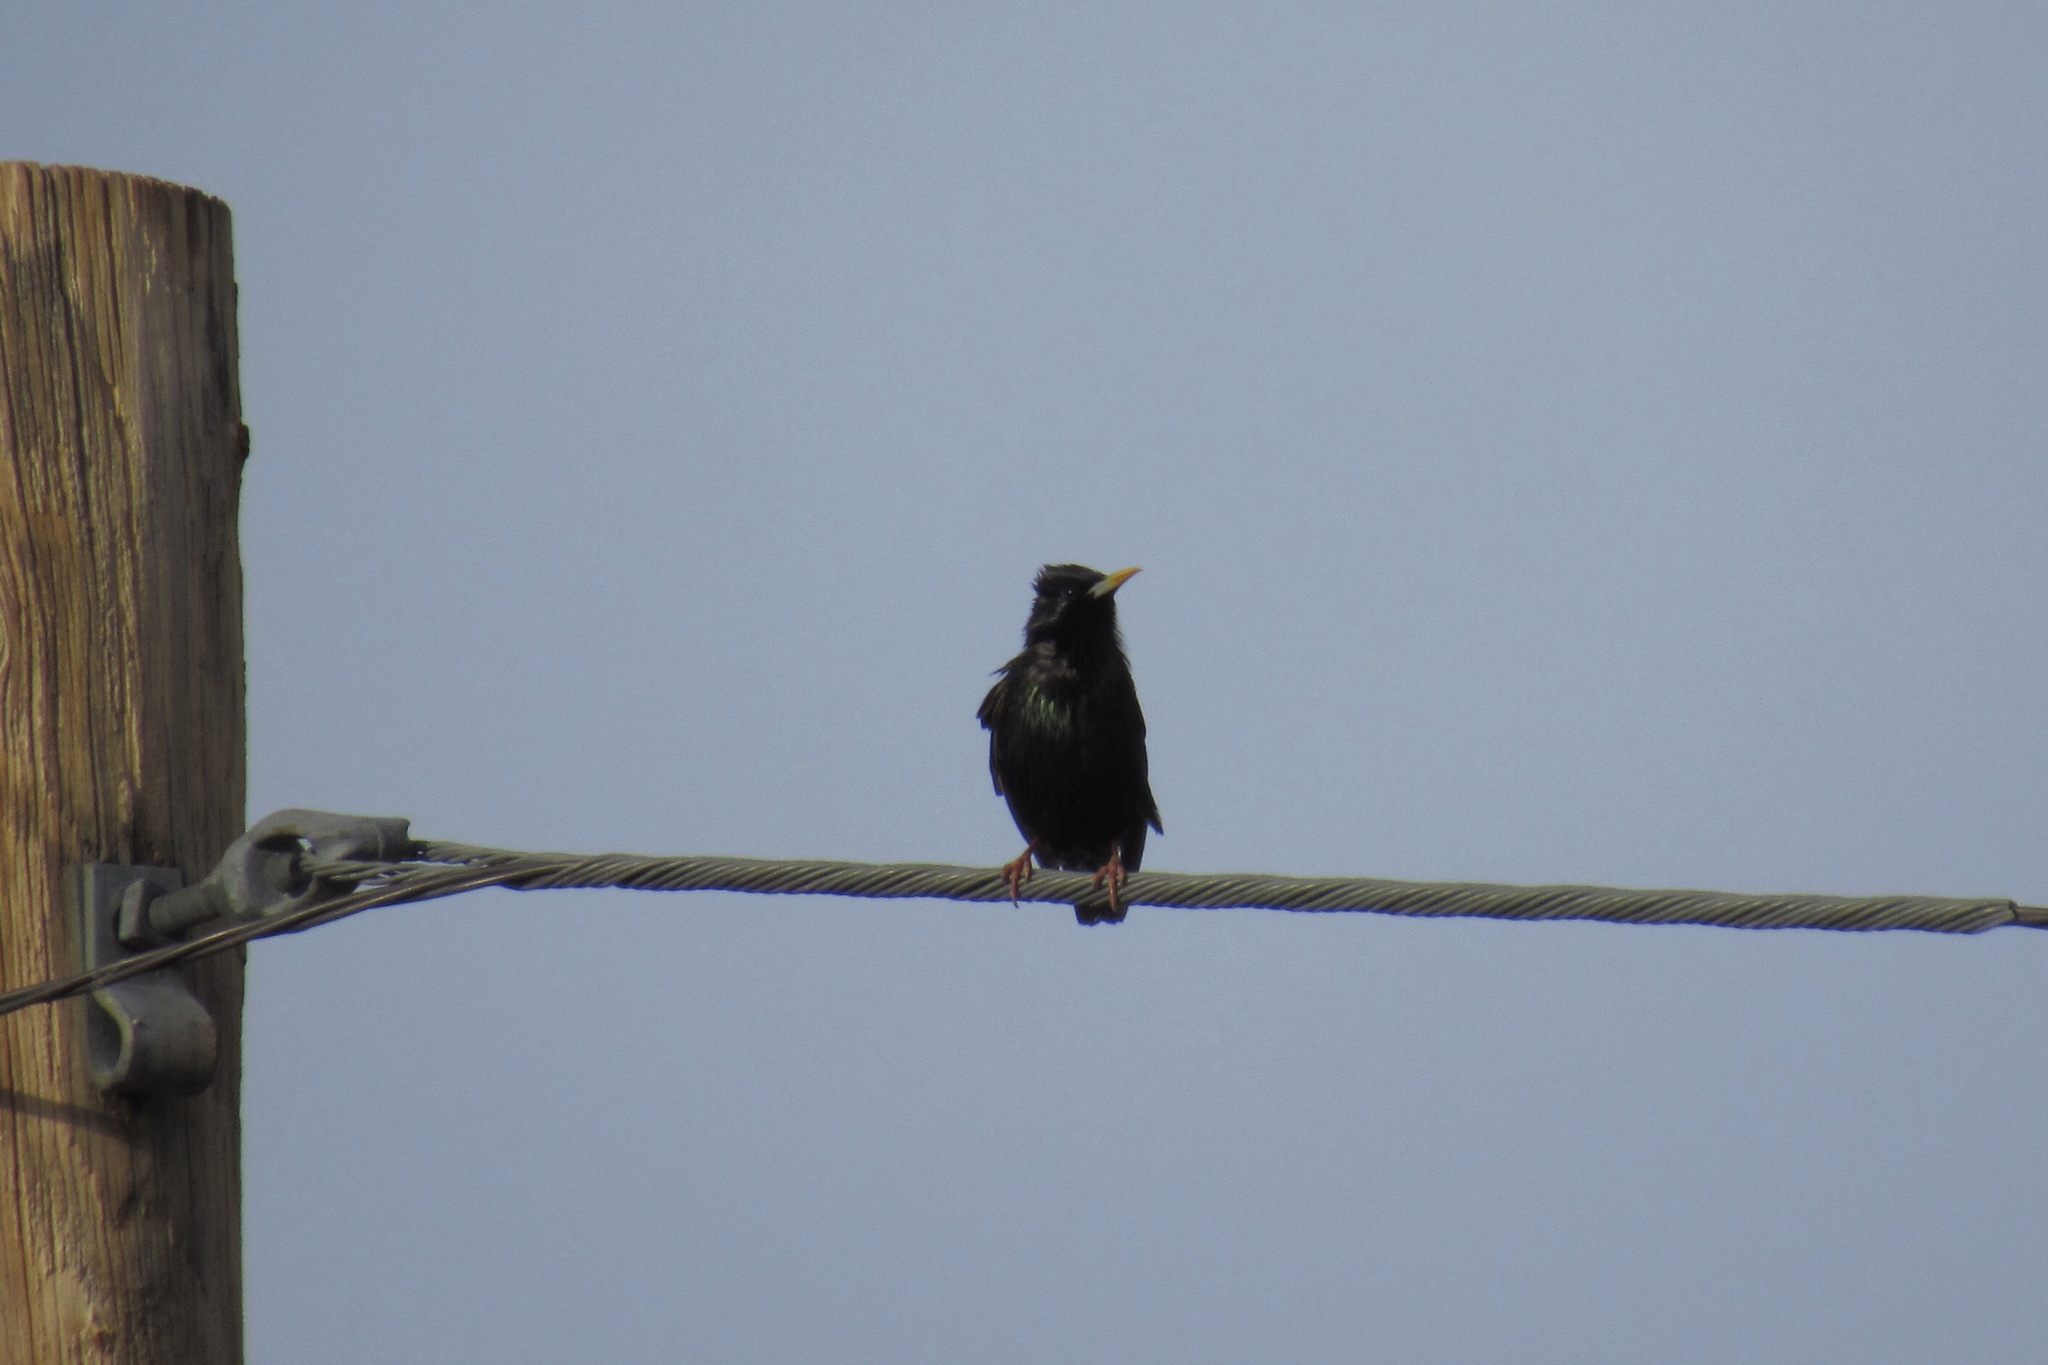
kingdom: Animalia
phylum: Chordata
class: Aves
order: Passeriformes
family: Sturnidae
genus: Sturnus
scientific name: Sturnus vulgaris
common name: Common starling
